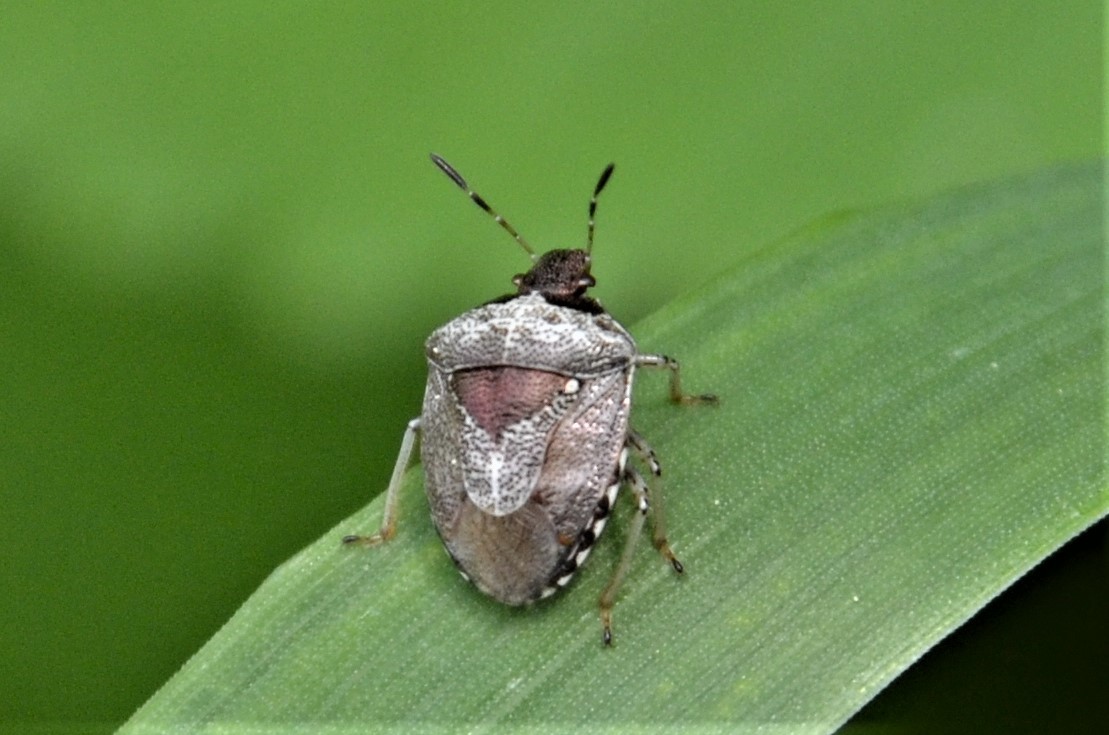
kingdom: Animalia
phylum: Arthropoda
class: Insecta
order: Hemiptera
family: Pentatomidae
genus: Eysarcoris
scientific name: Eysarcoris venustissimus
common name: Woundwort shieldbug
